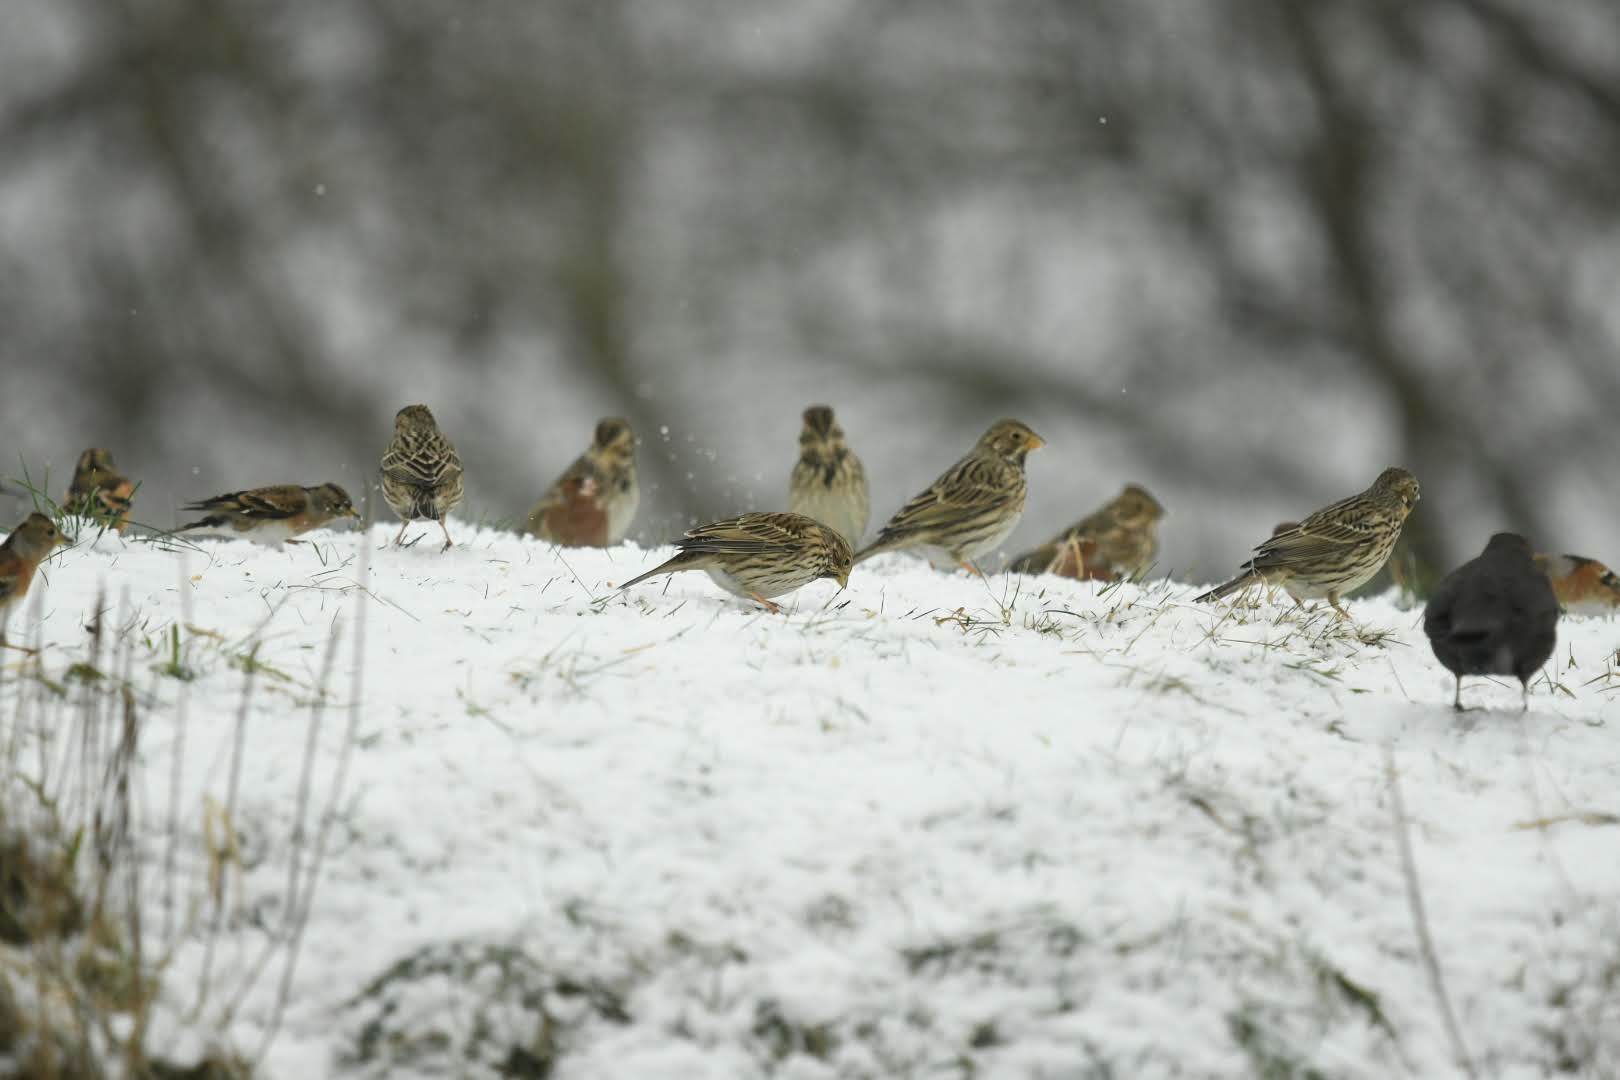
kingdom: Animalia
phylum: Chordata
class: Aves
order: Passeriformes
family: Emberizidae
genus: Emberiza
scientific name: Emberiza calandra
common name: Corn bunting
